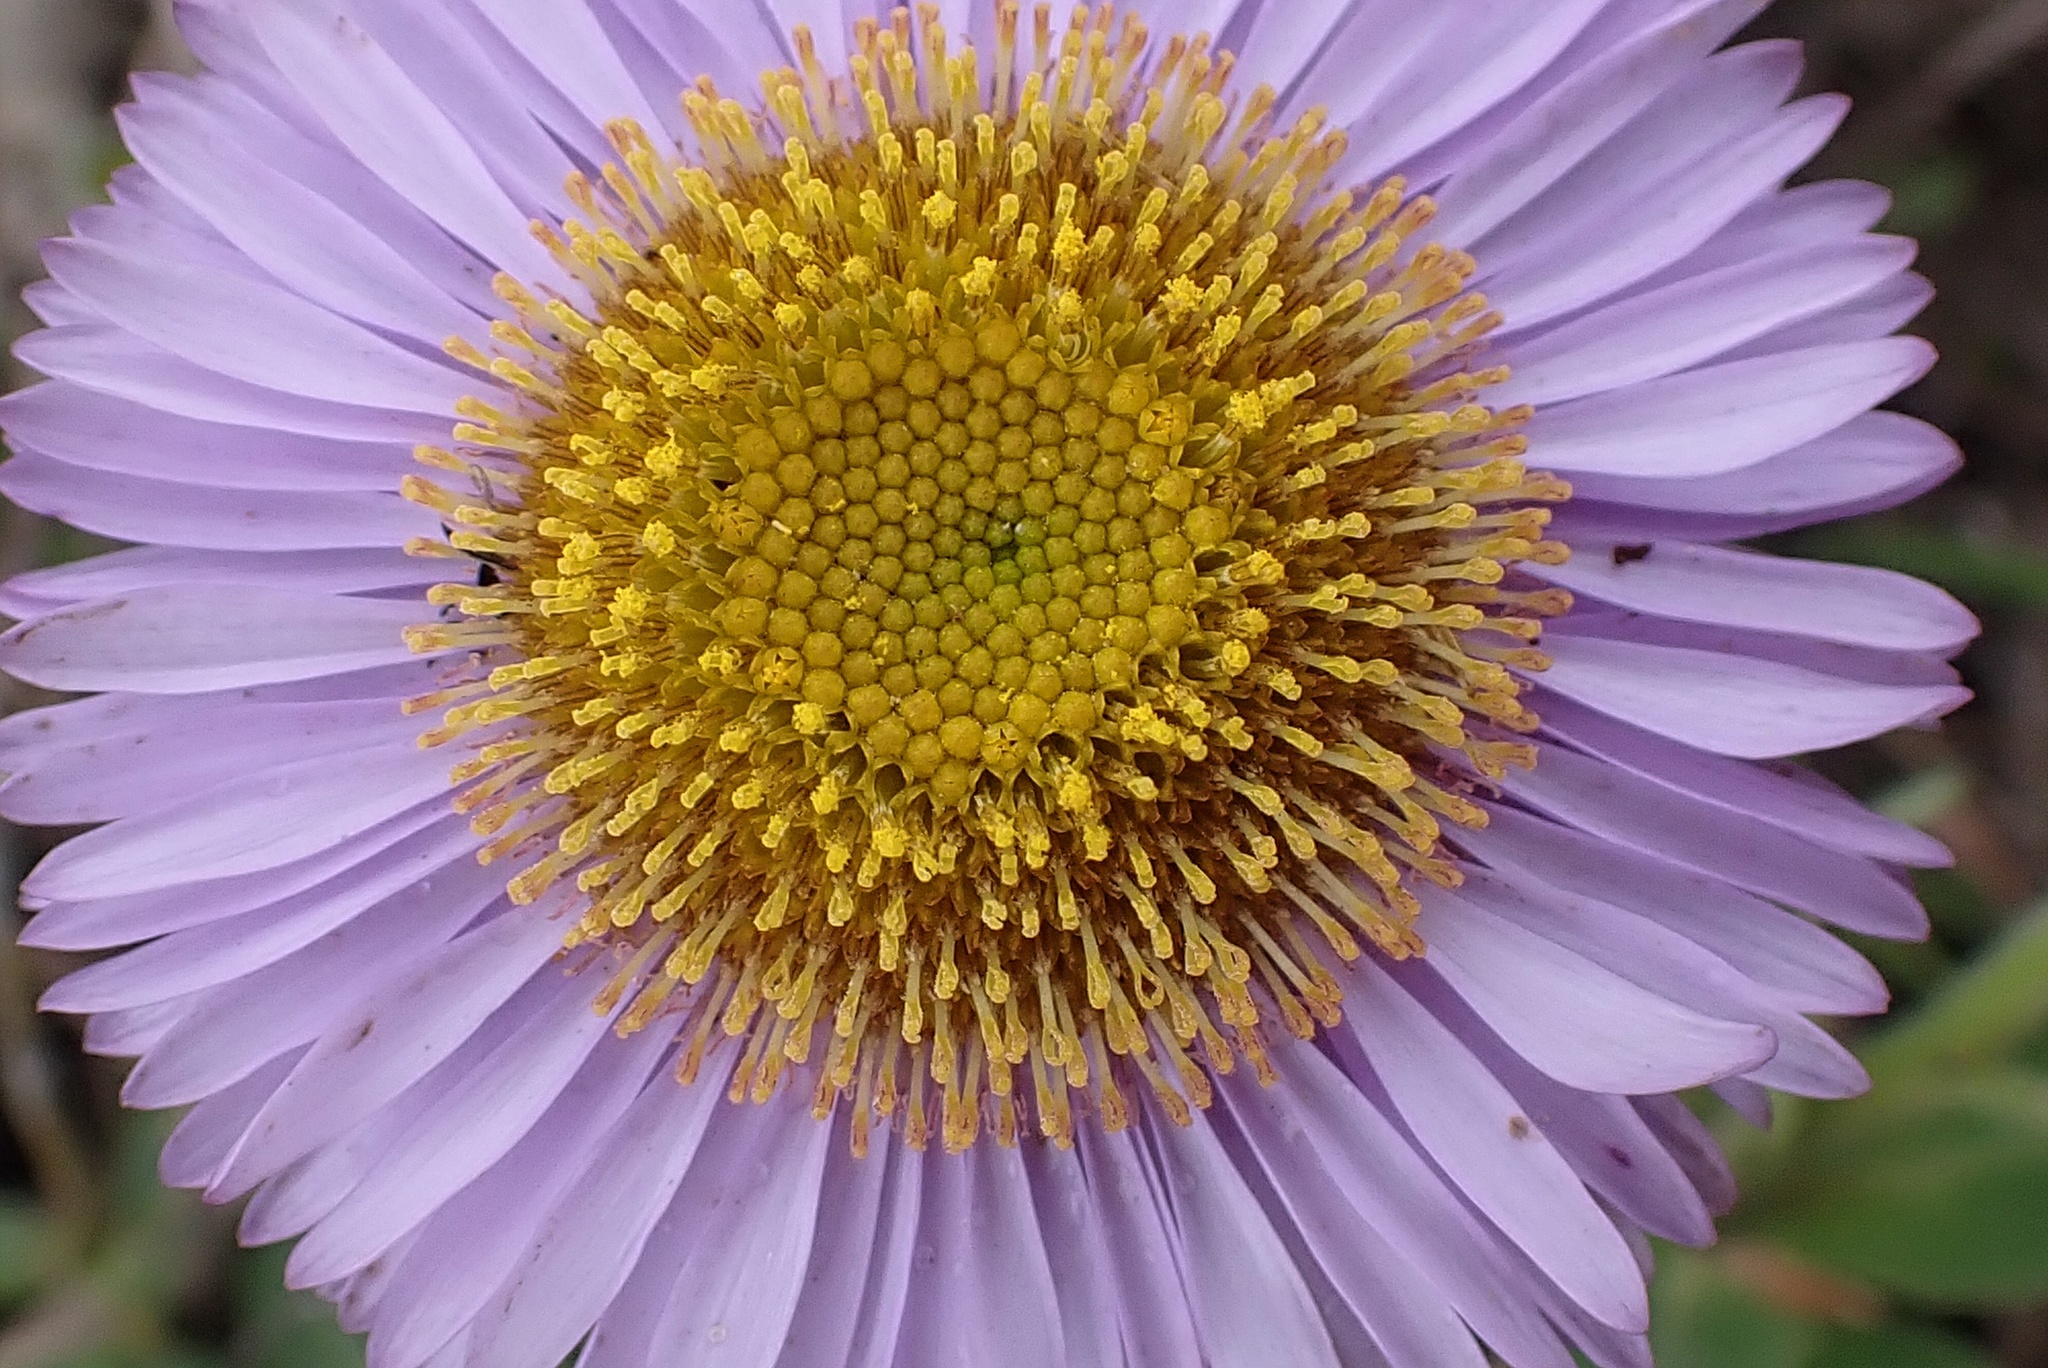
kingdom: Plantae
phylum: Tracheophyta
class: Magnoliopsida
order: Asterales
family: Asteraceae
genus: Erigeron
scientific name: Erigeron glaucus
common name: Seaside daisy
